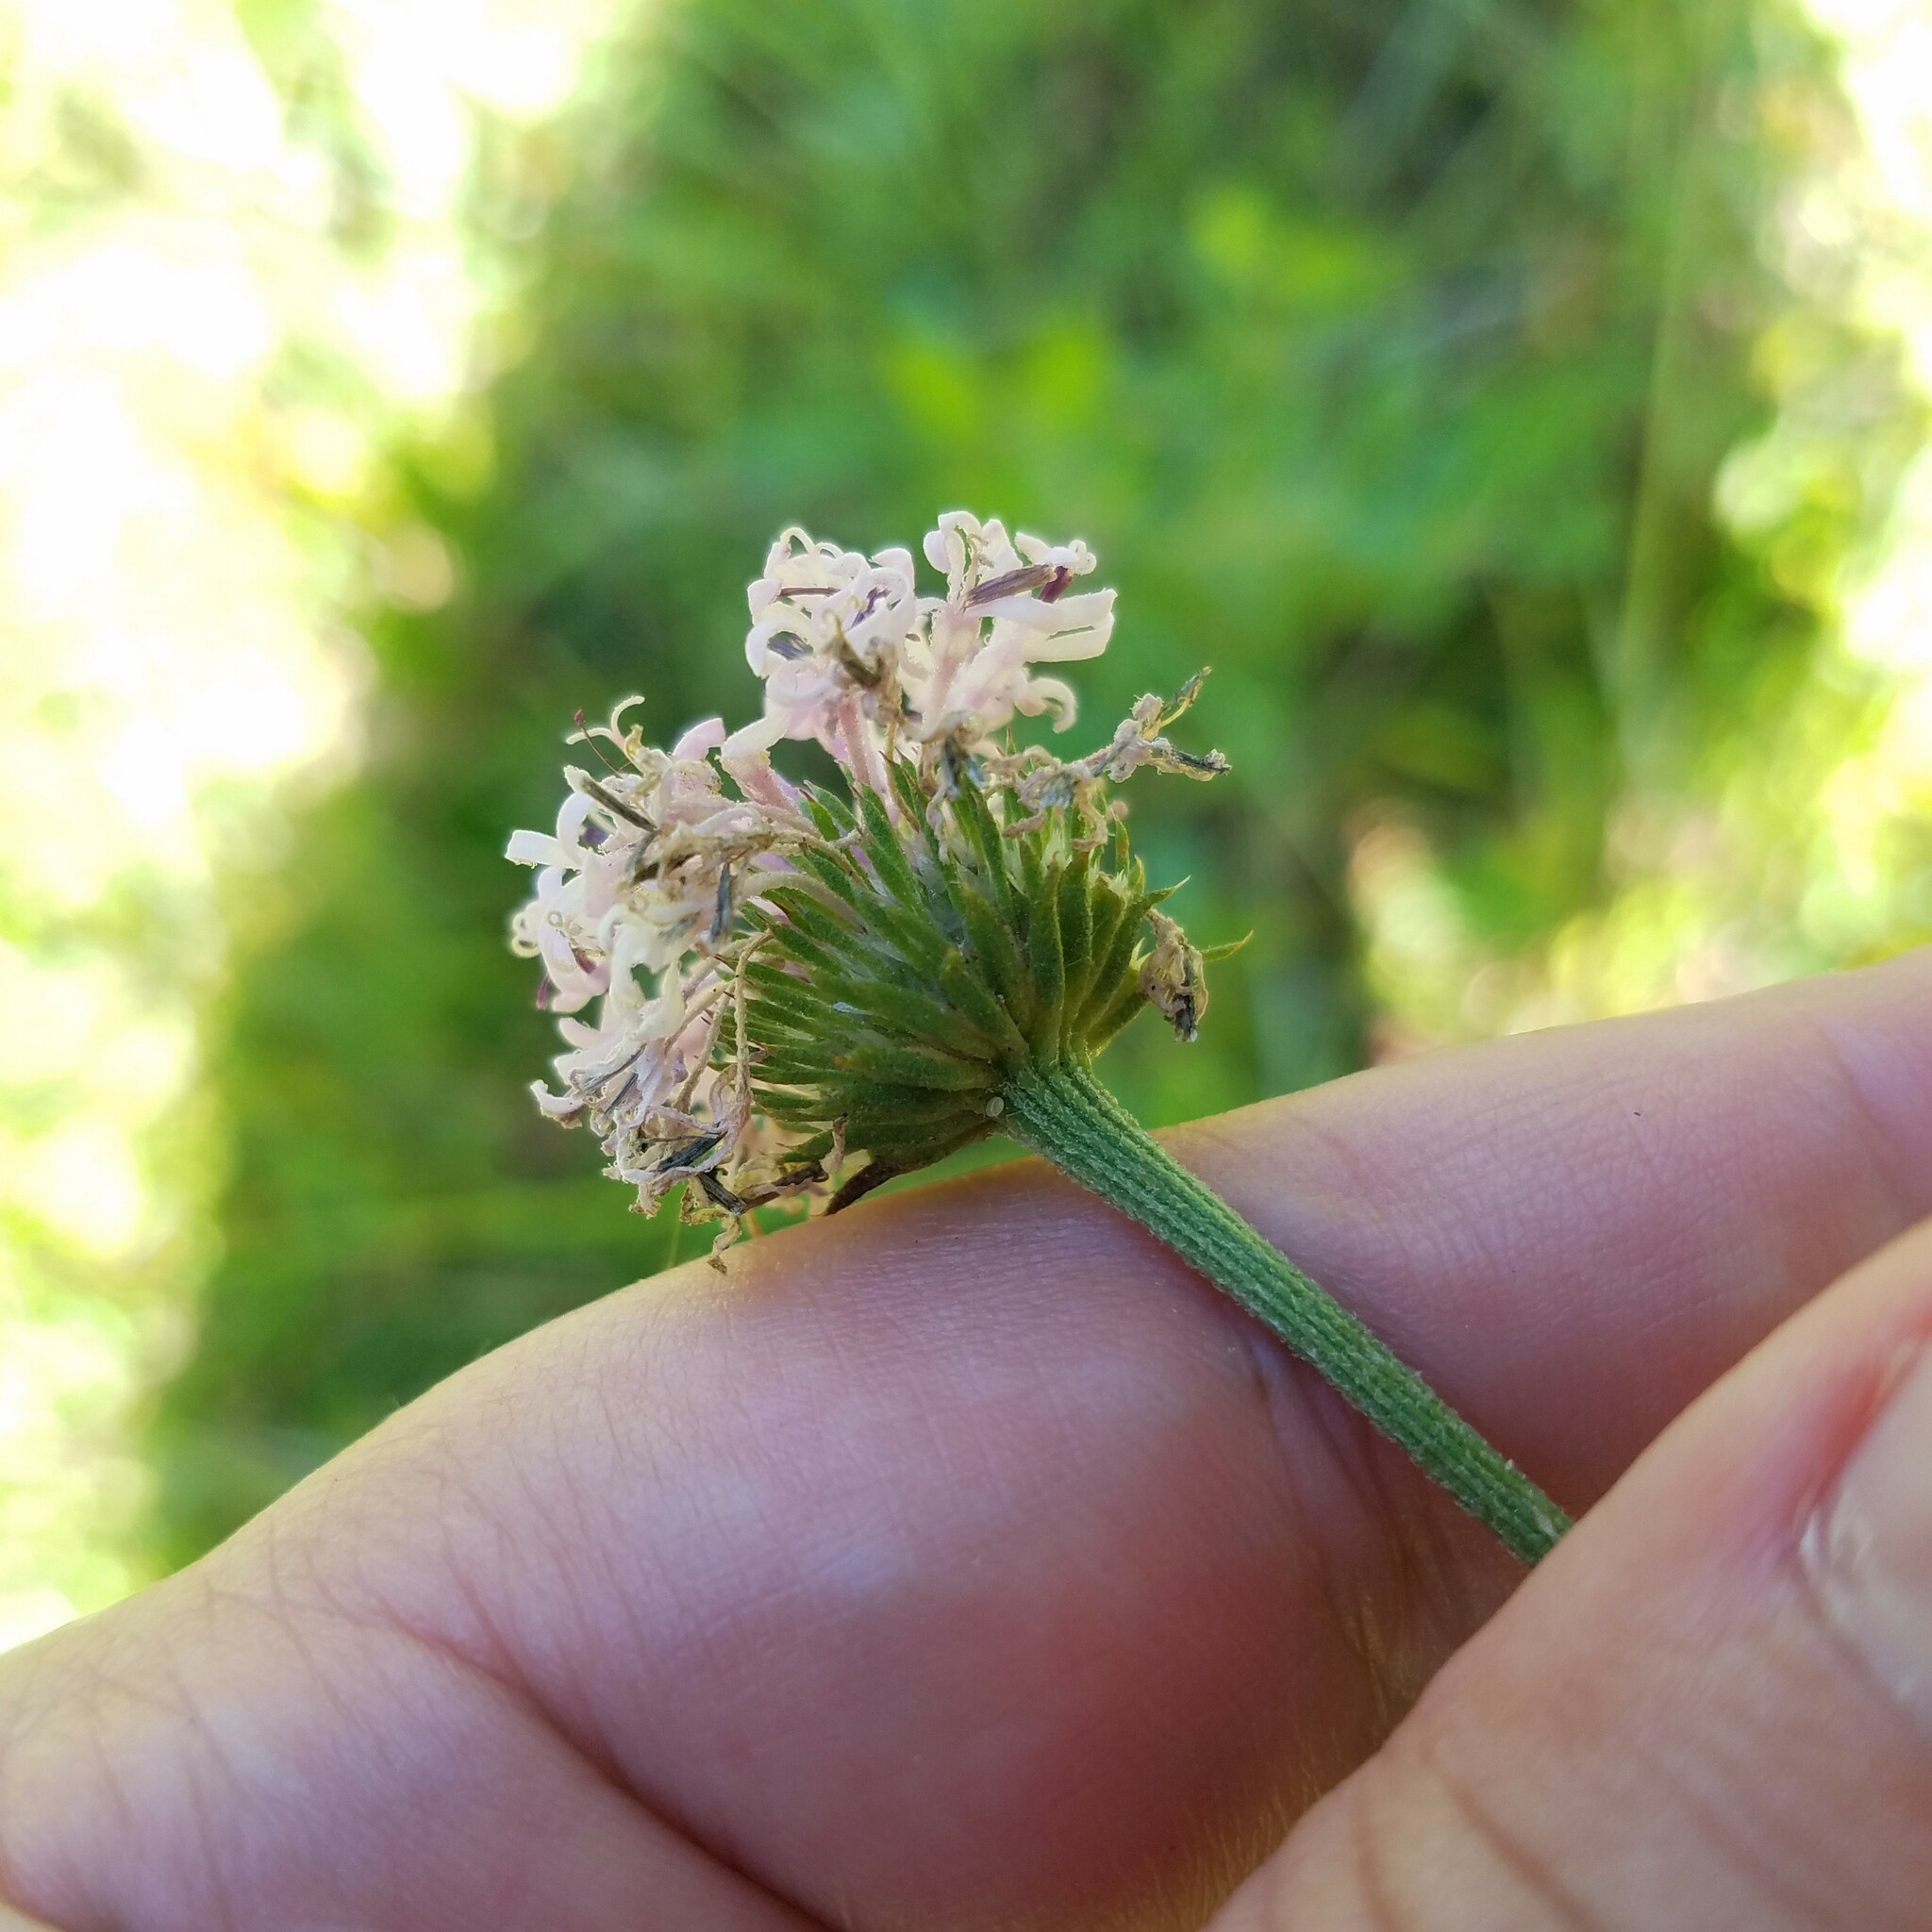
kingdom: Plantae
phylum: Tracheophyta
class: Magnoliopsida
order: Asterales
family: Asteraceae
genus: Marshallia
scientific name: Marshallia graminifolia
